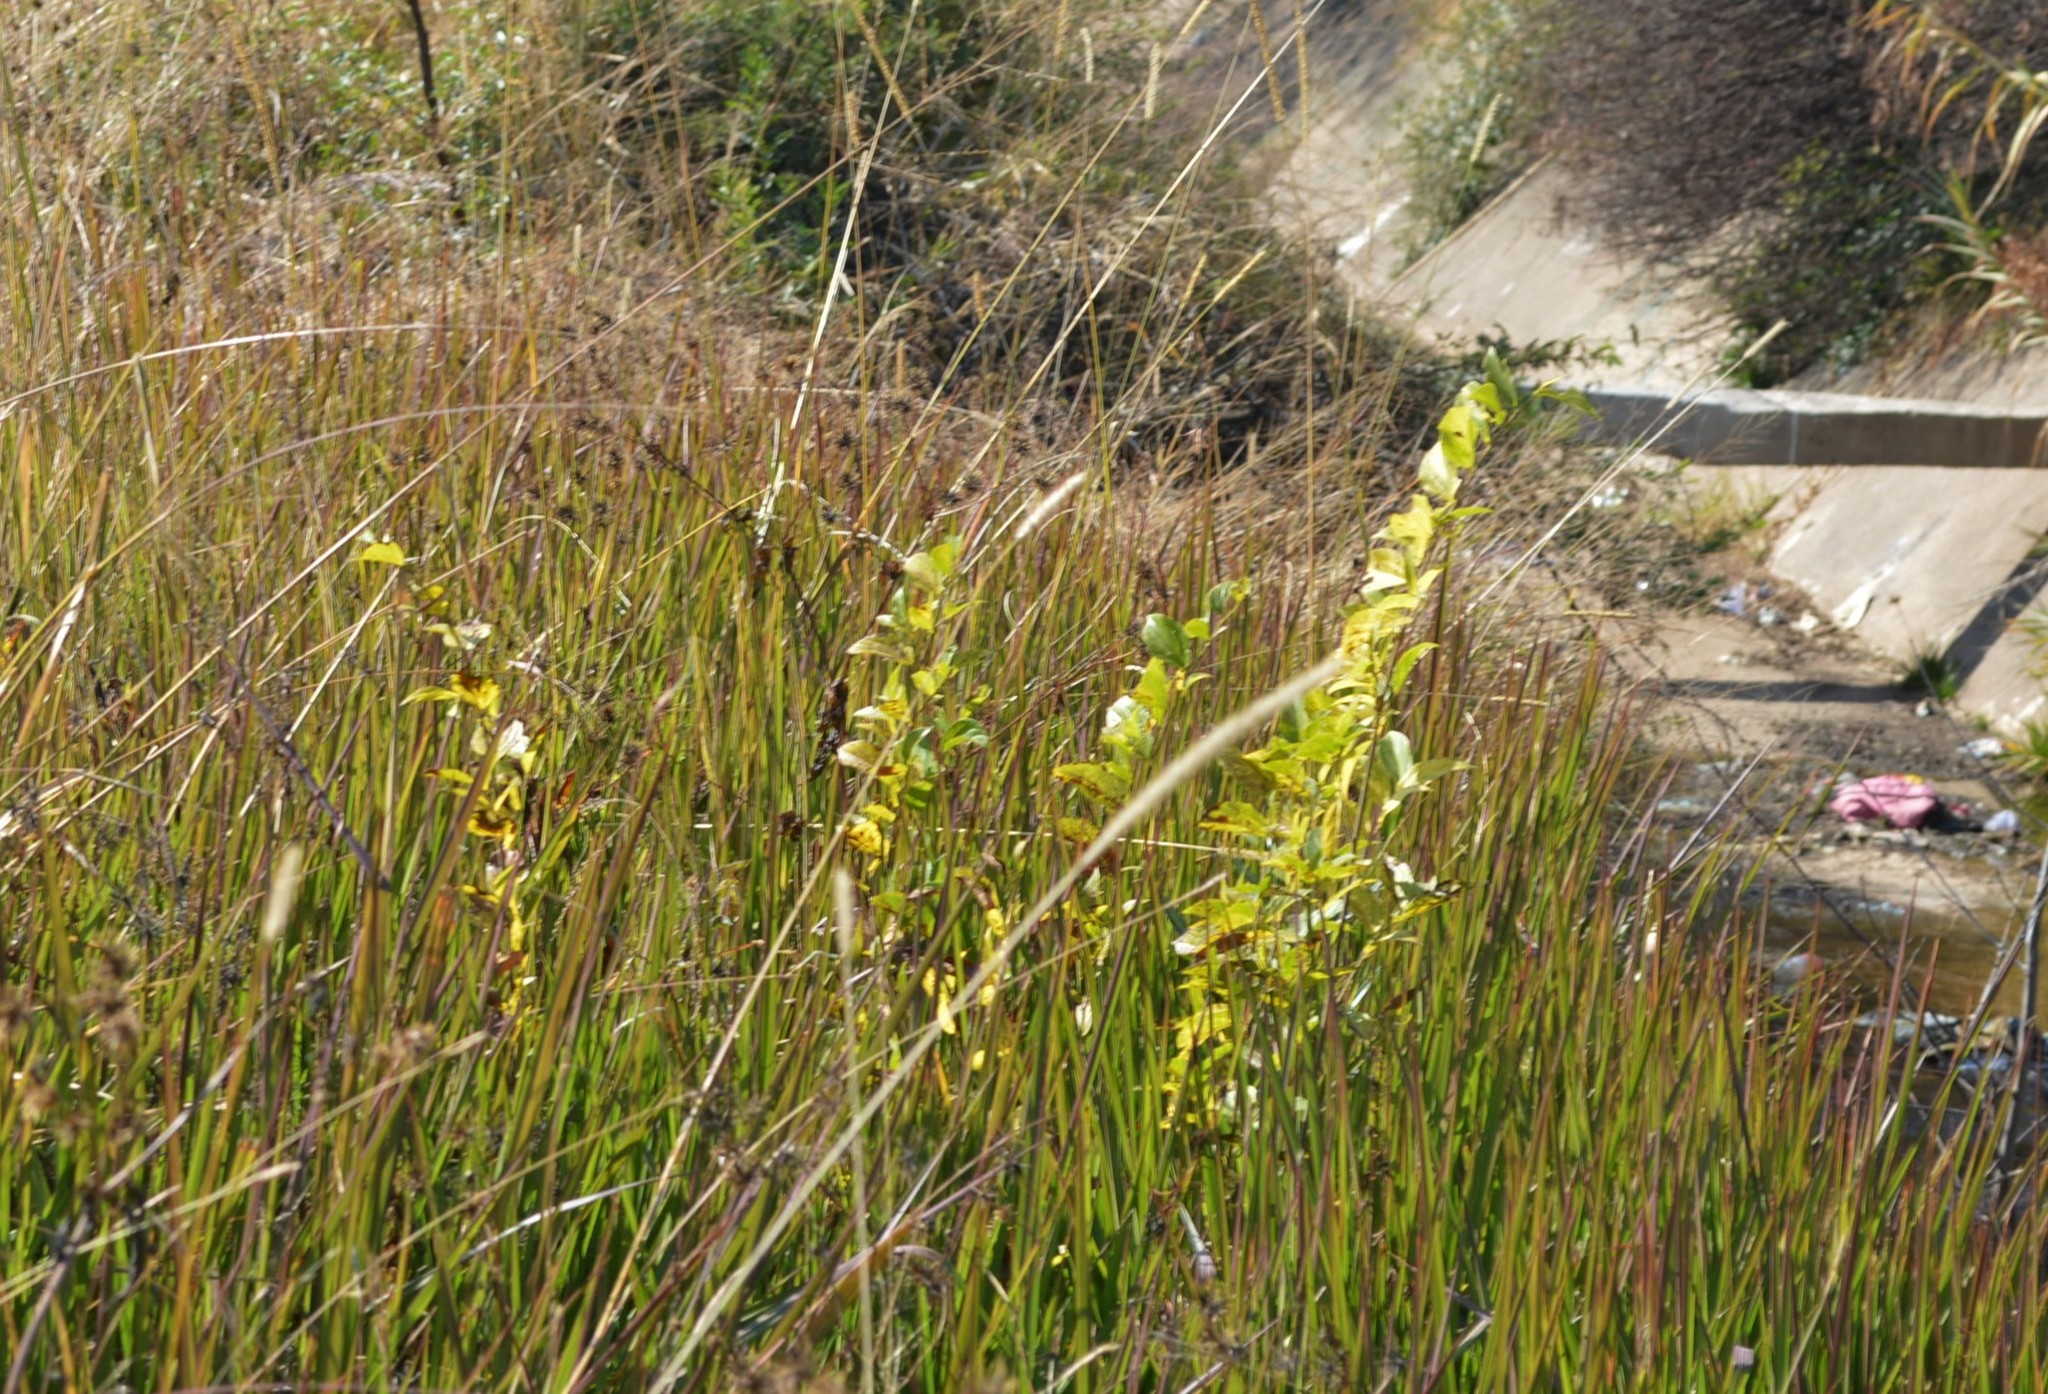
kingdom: Plantae
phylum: Tracheophyta
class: Magnoliopsida
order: Rosales
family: Cannabaceae
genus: Celtis
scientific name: Celtis sinensis
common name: Chinese hackberry
